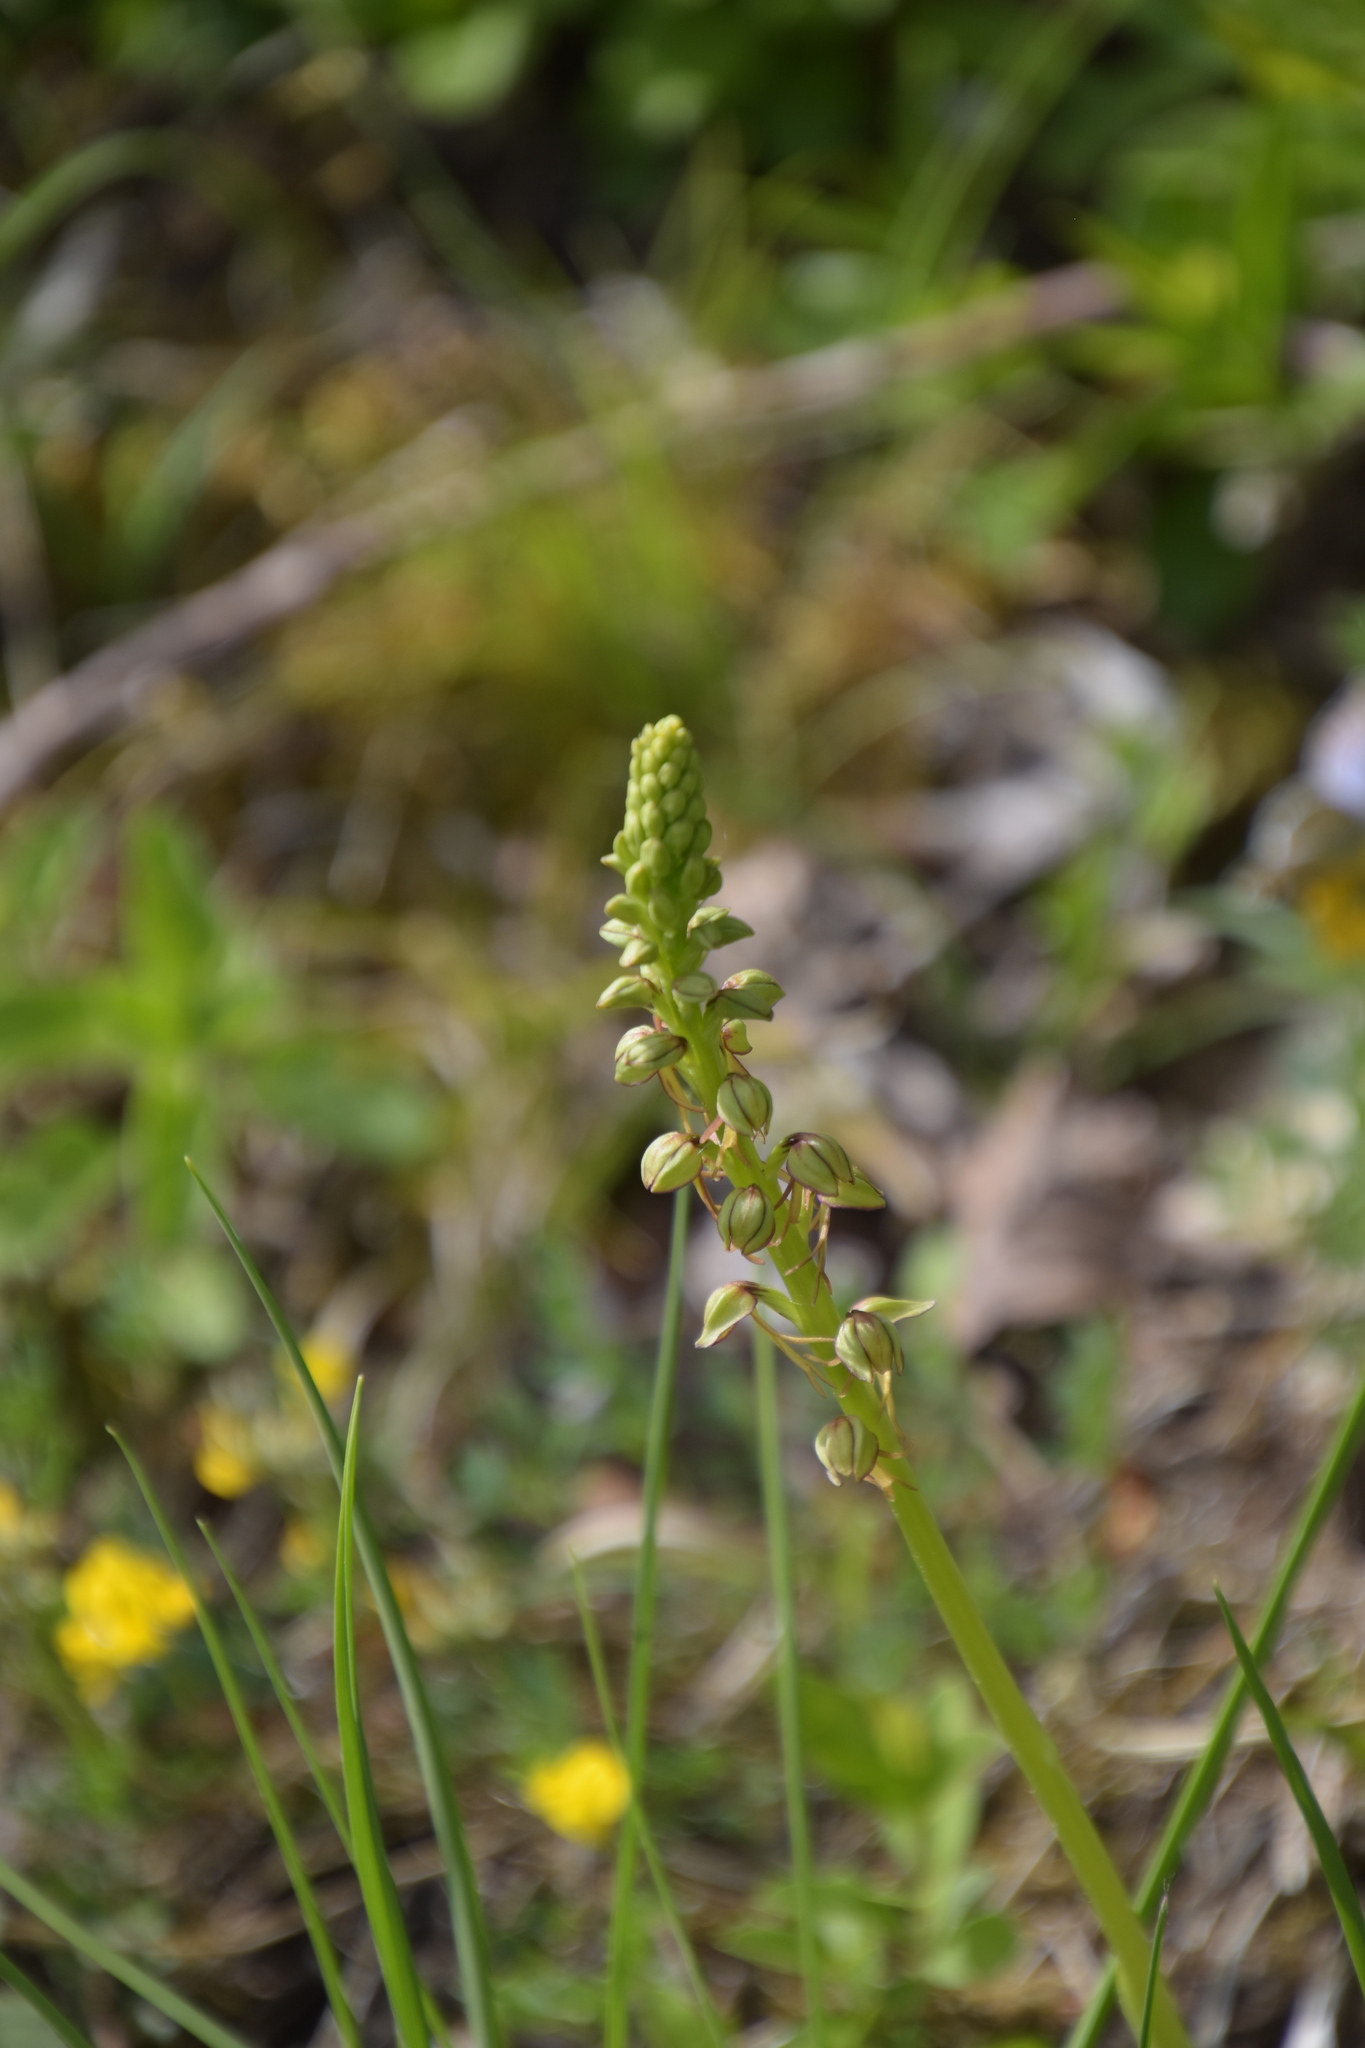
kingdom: Plantae
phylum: Tracheophyta
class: Liliopsida
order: Asparagales
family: Orchidaceae
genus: Orchis
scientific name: Orchis anthropophora
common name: Man orchid
